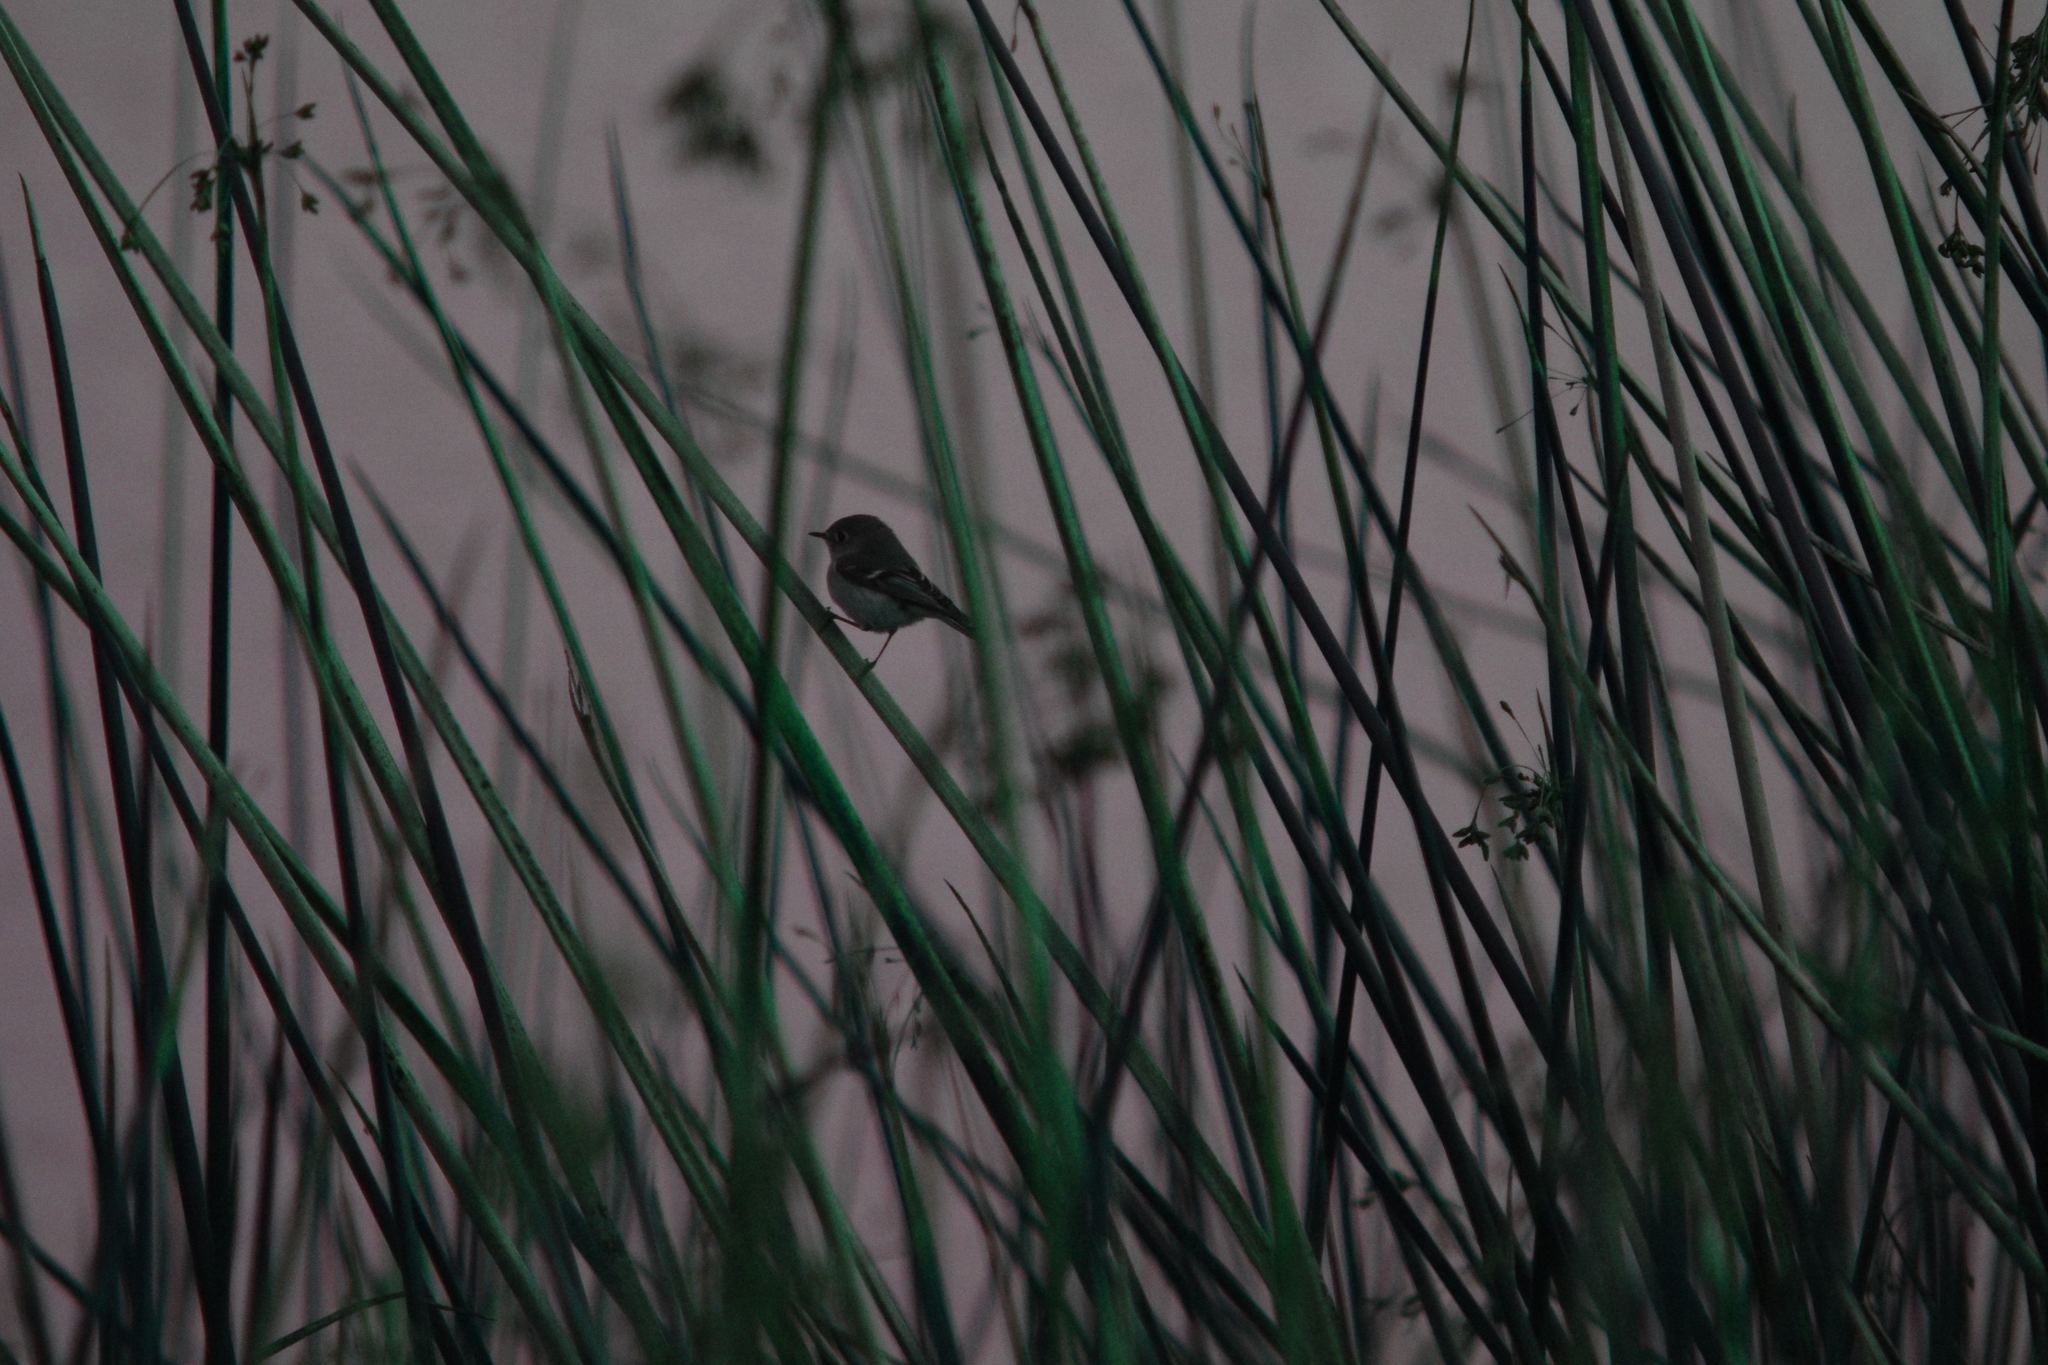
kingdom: Animalia
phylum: Chordata
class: Aves
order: Passeriformes
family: Regulidae
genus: Regulus
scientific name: Regulus calendula
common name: Ruby-crowned kinglet
